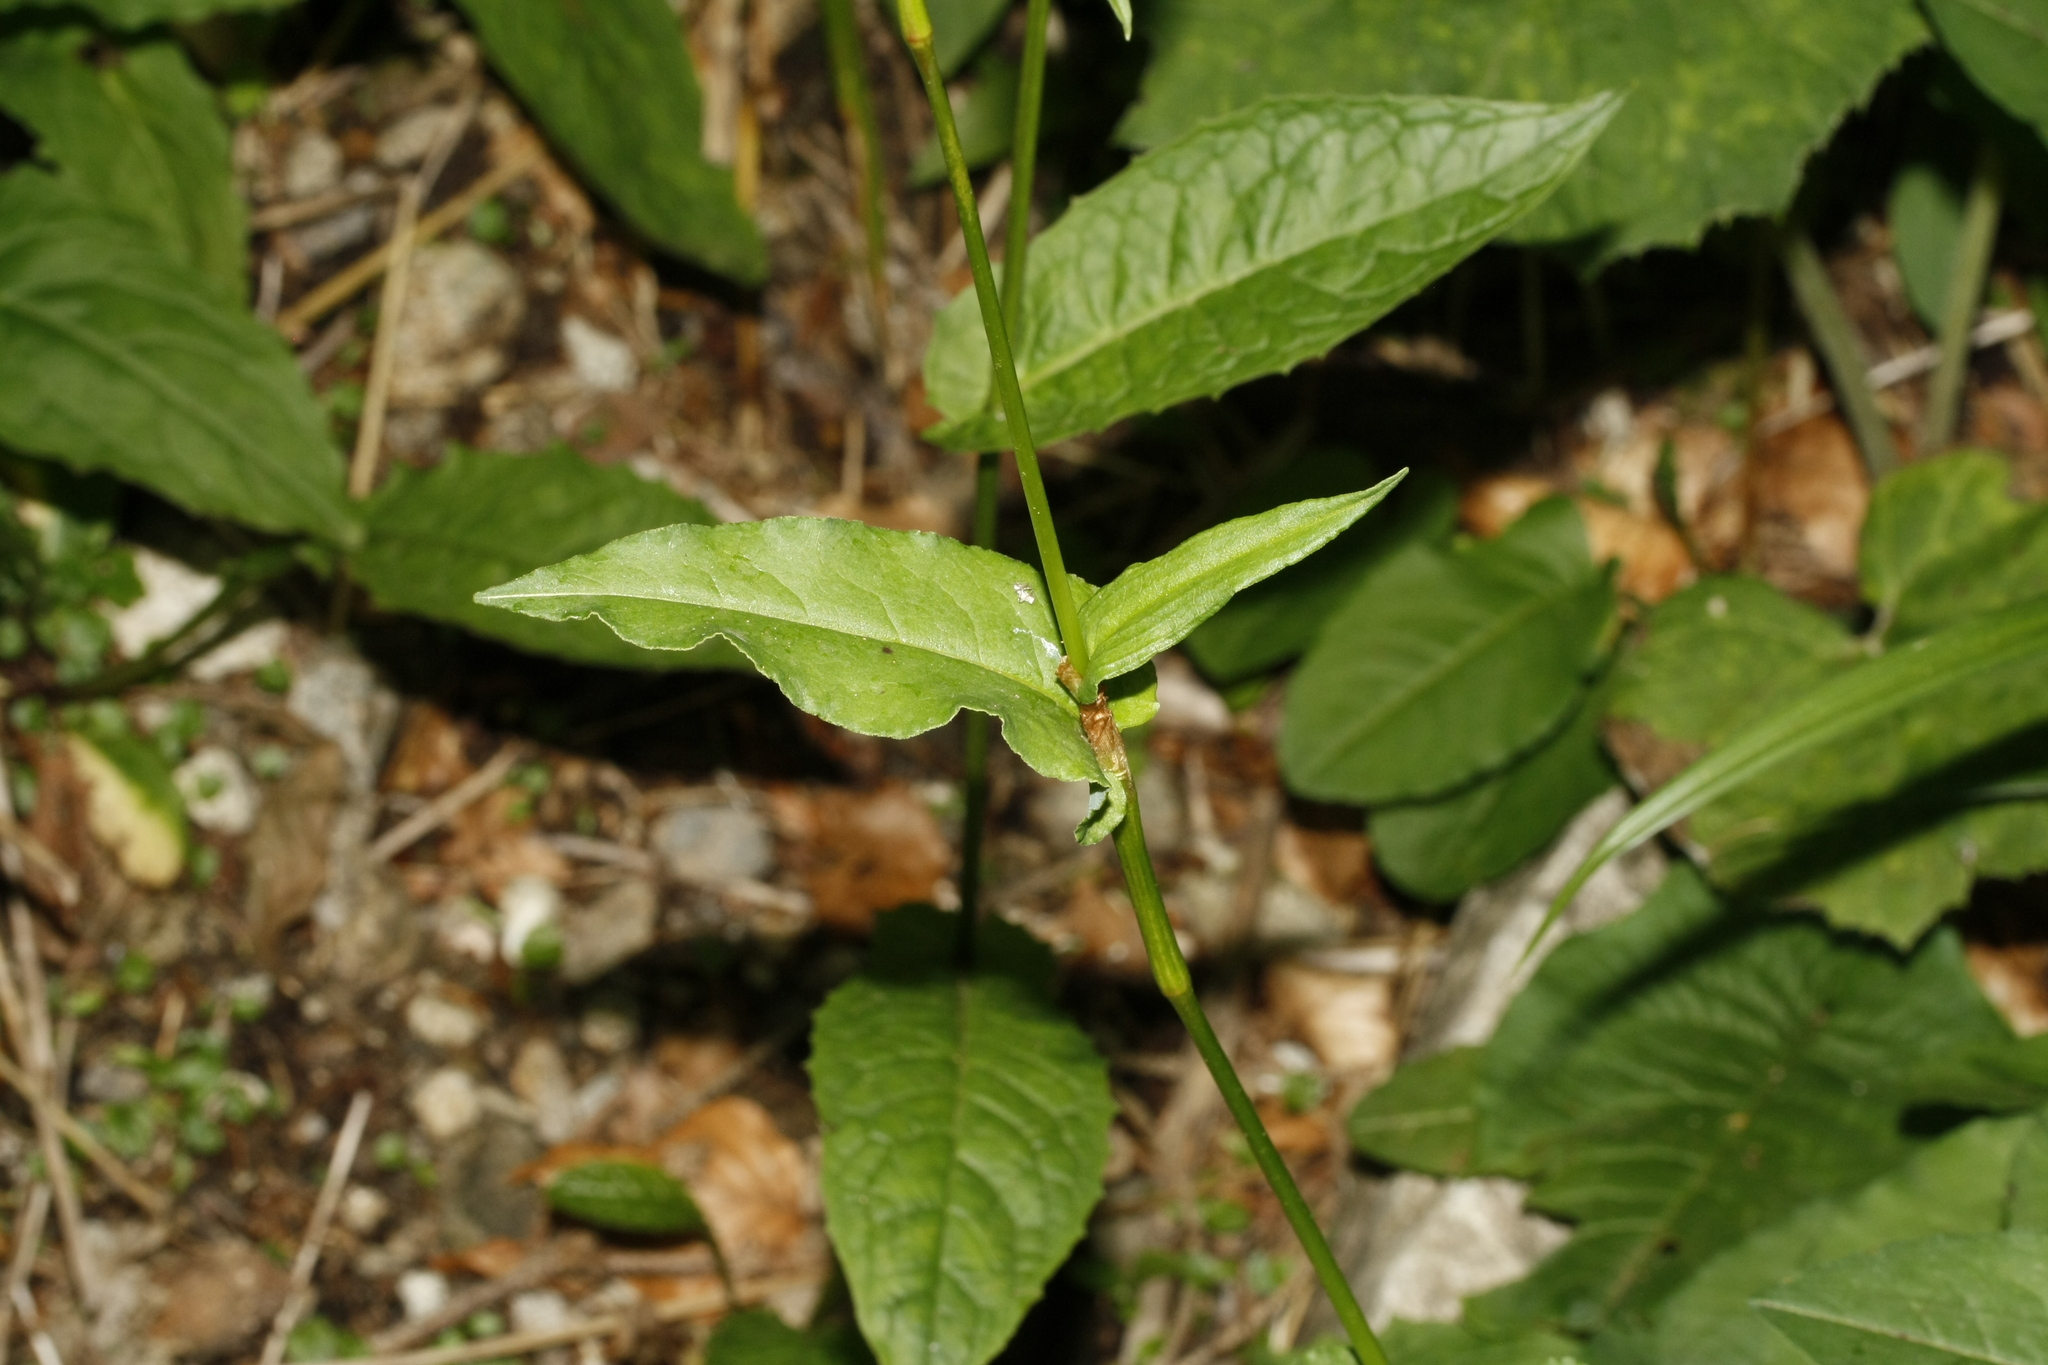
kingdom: Plantae
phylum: Tracheophyta
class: Magnoliopsida
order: Caryophyllales
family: Polygonaceae
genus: Bistorta
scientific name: Bistorta officinalis
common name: Common bistort
